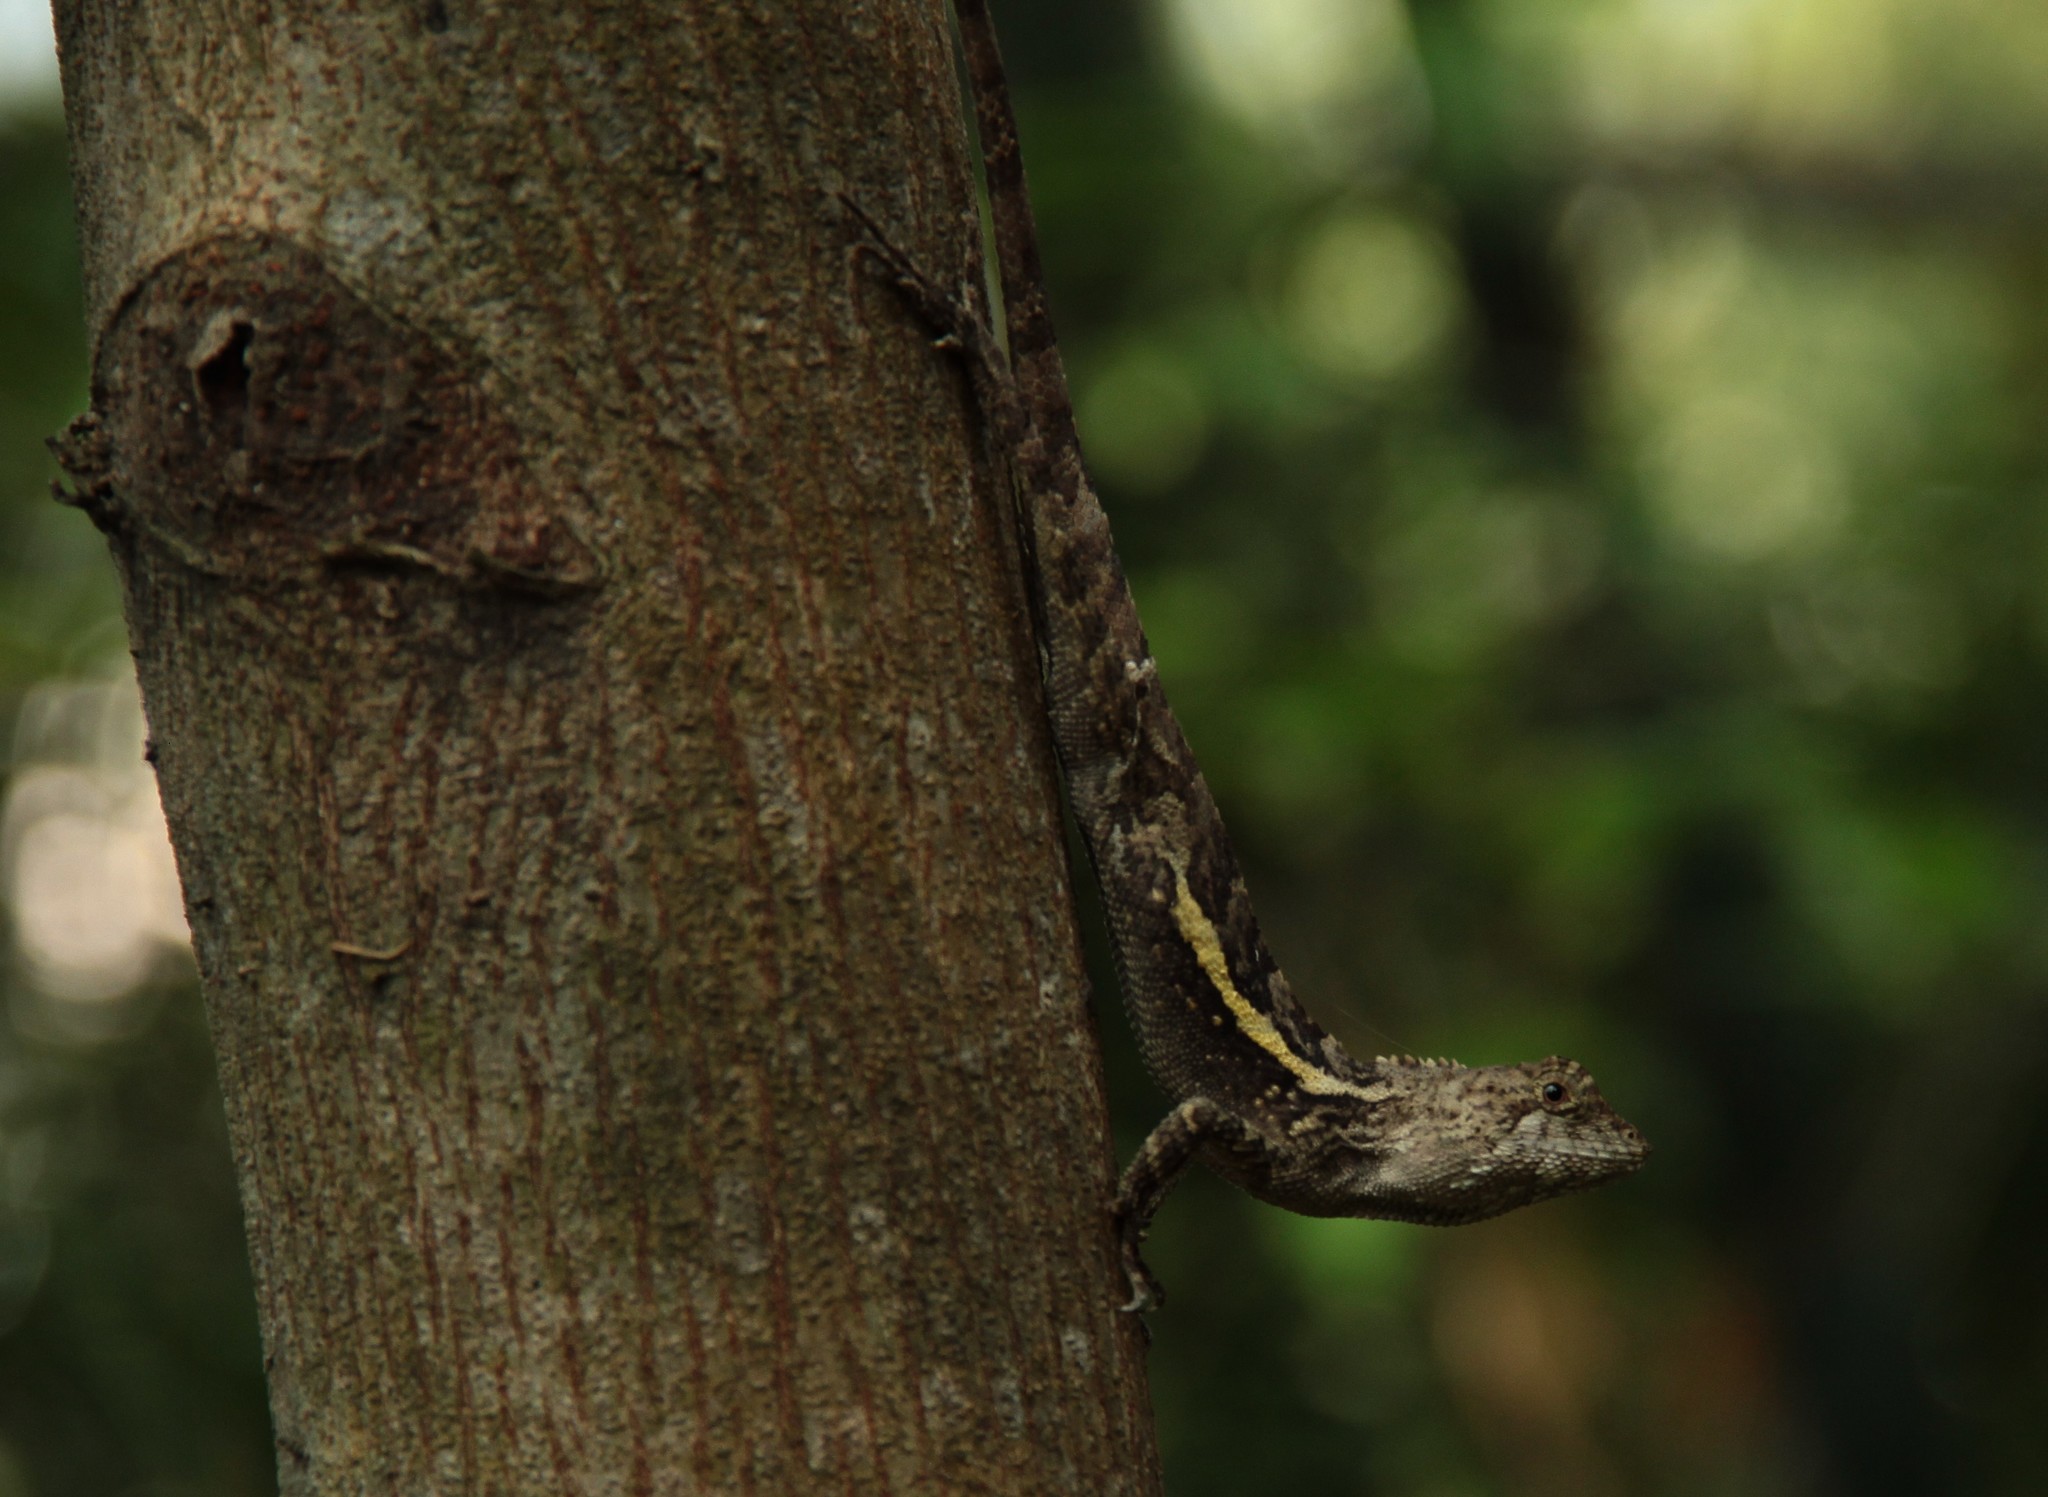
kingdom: Animalia
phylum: Chordata
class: Squamata
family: Agamidae
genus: Diploderma
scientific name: Diploderma swinhonis
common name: Taiwan japalure
